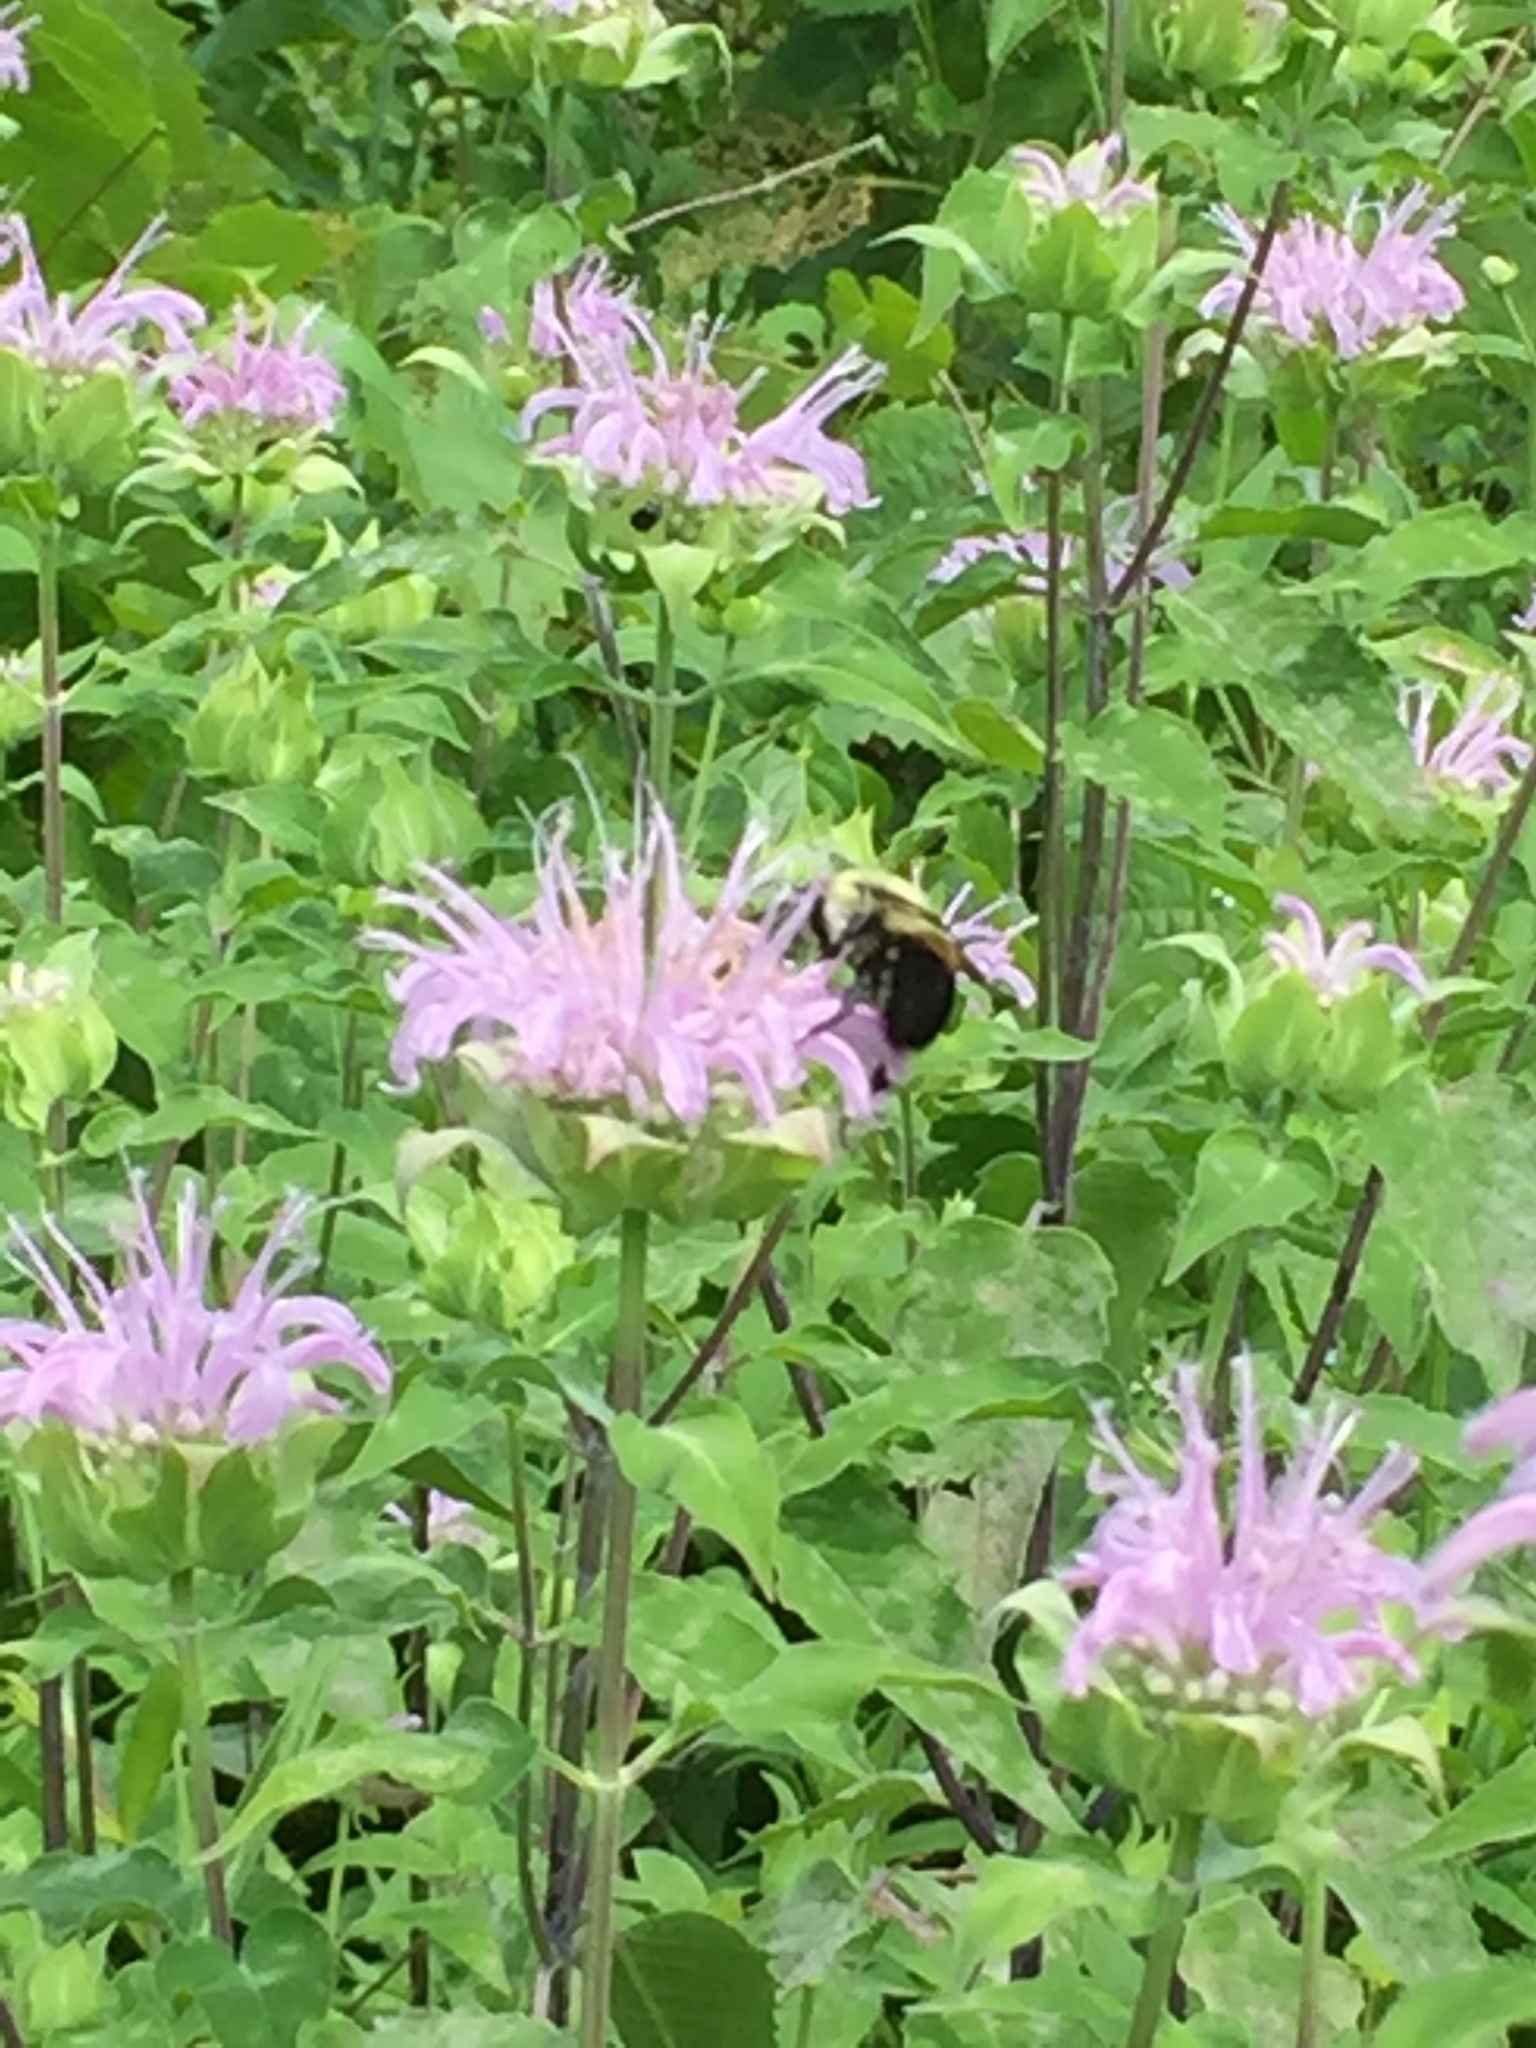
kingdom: Animalia
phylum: Arthropoda
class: Insecta
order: Hymenoptera
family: Apidae
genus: Bombus
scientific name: Bombus griseocollis
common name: Brown-belted bumble bee
